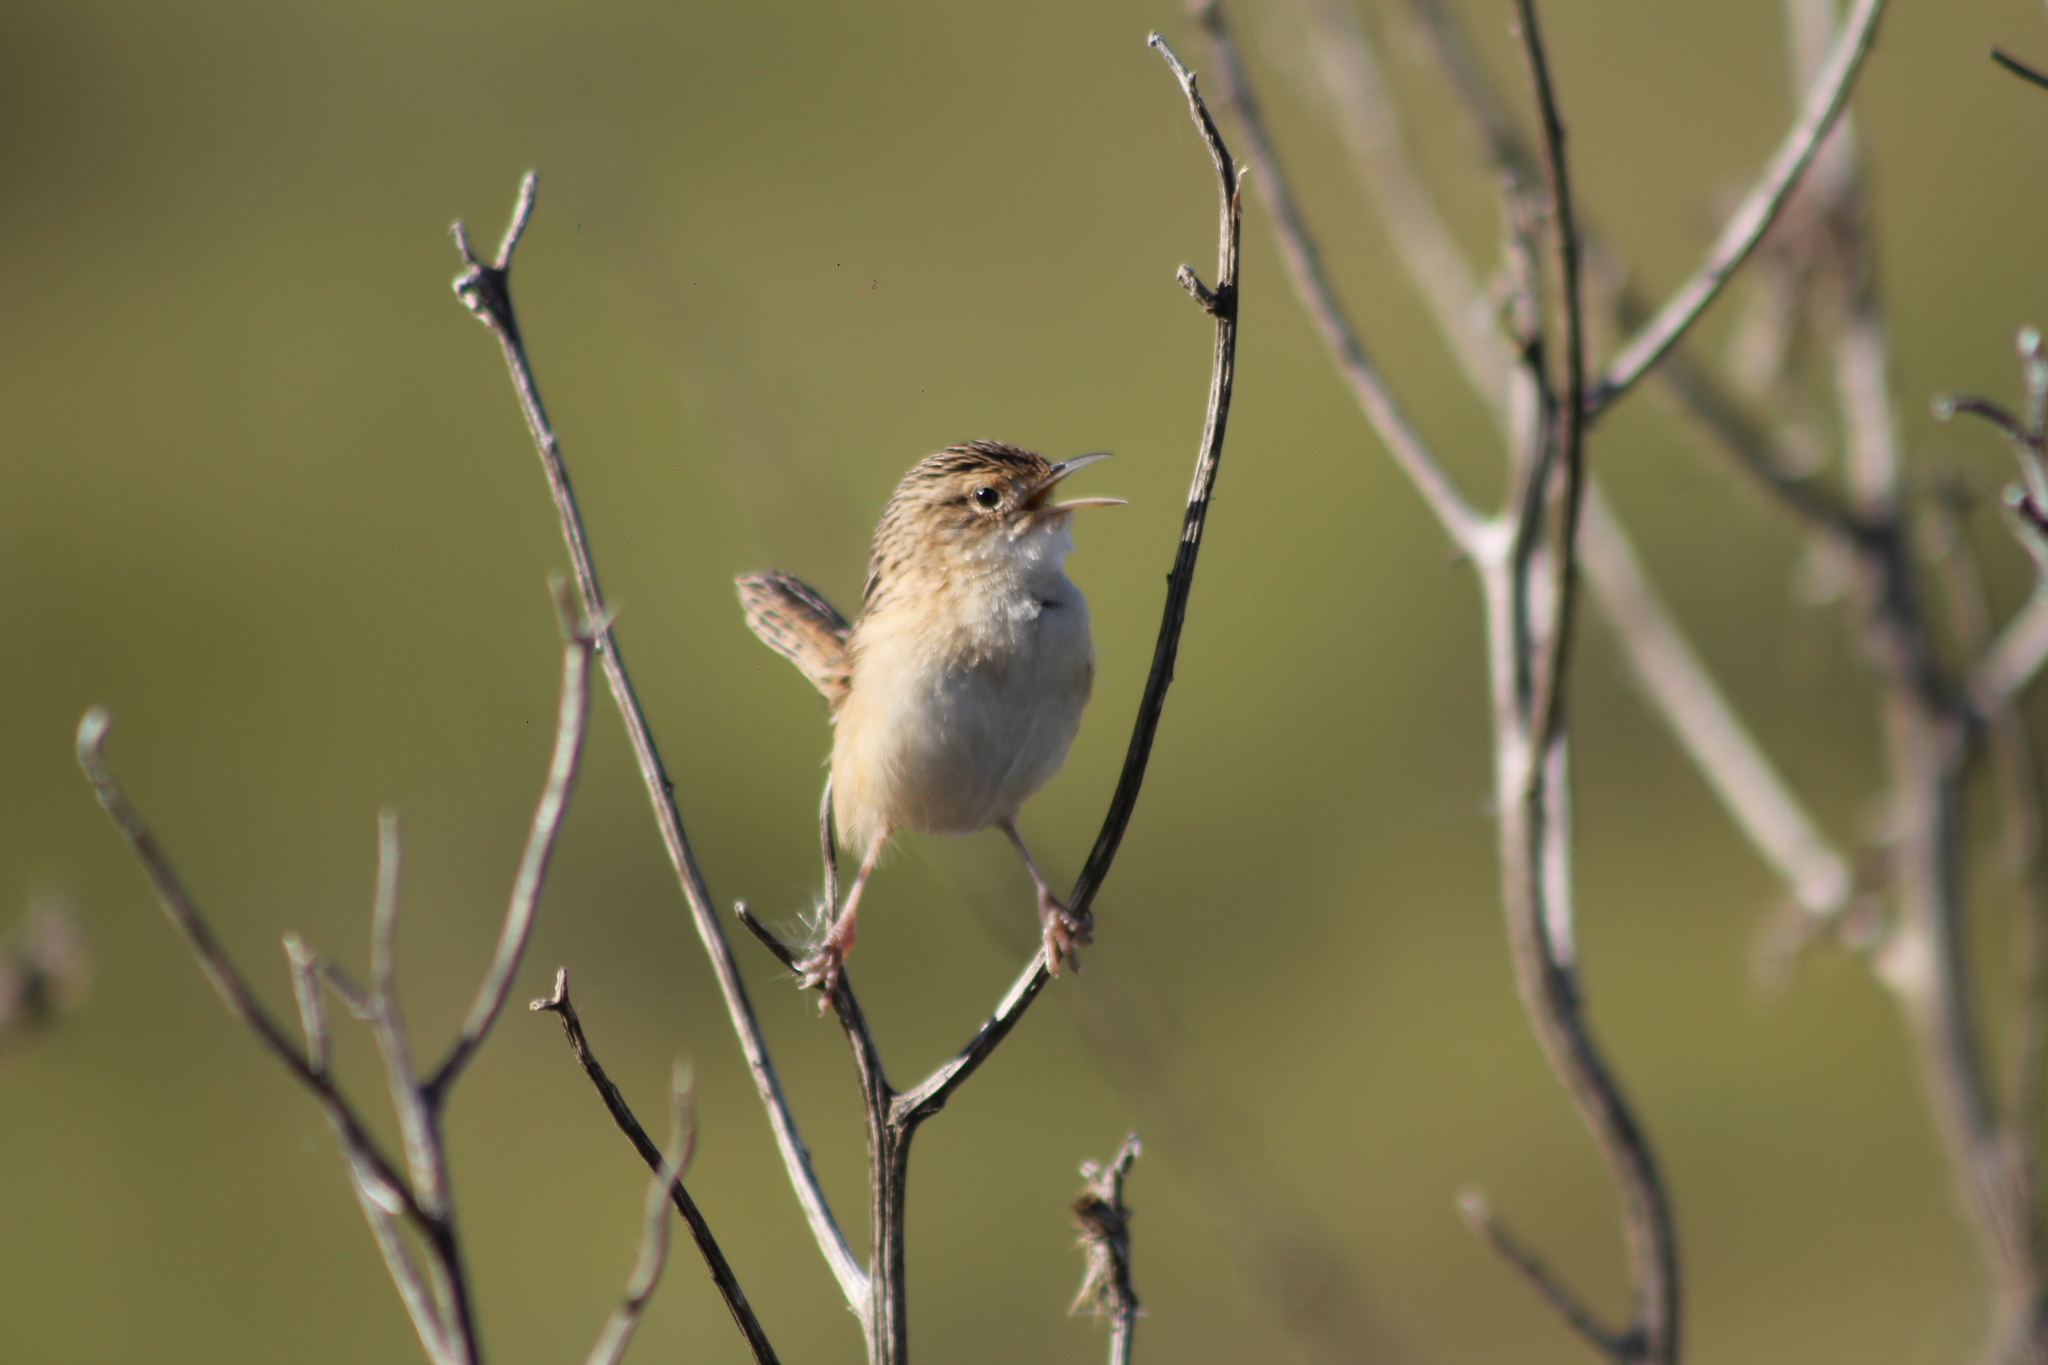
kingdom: Animalia
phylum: Chordata
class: Aves
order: Passeriformes
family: Troglodytidae
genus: Cistothorus
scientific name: Cistothorus platensis
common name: Sedge wren
